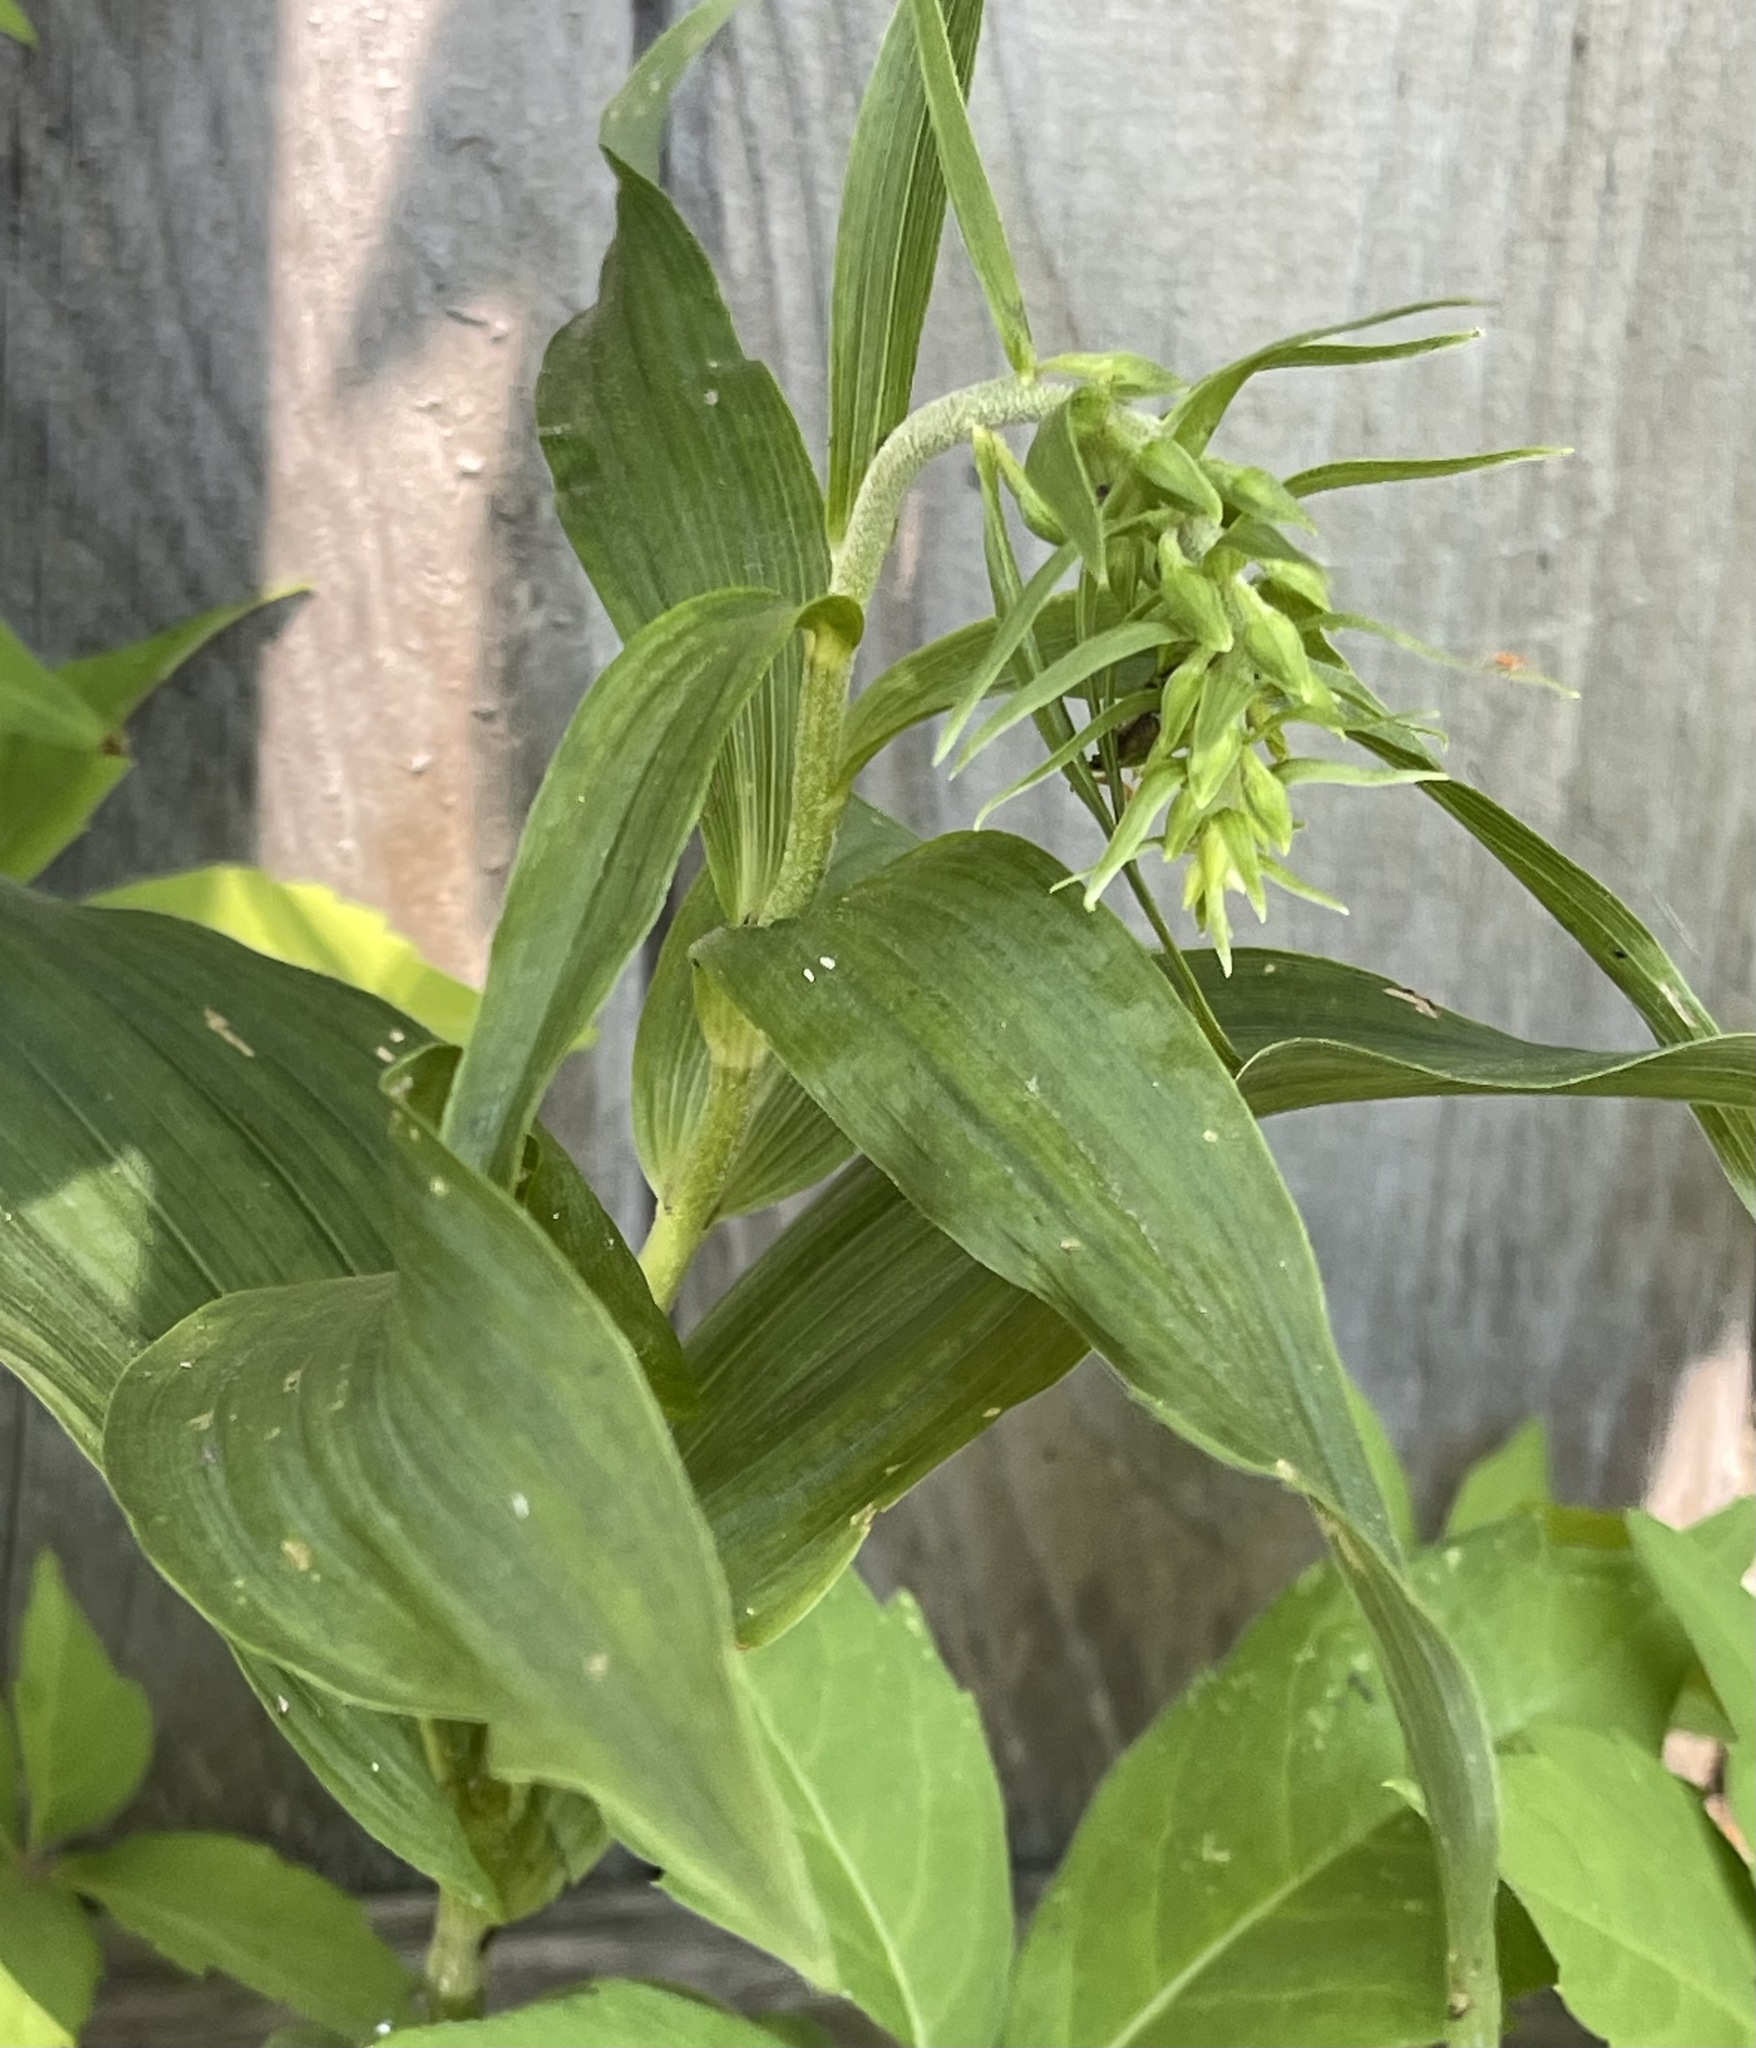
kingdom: Plantae
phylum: Tracheophyta
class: Liliopsida
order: Asparagales
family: Orchidaceae
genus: Epipactis
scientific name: Epipactis helleborine
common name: Broad-leaved helleborine
